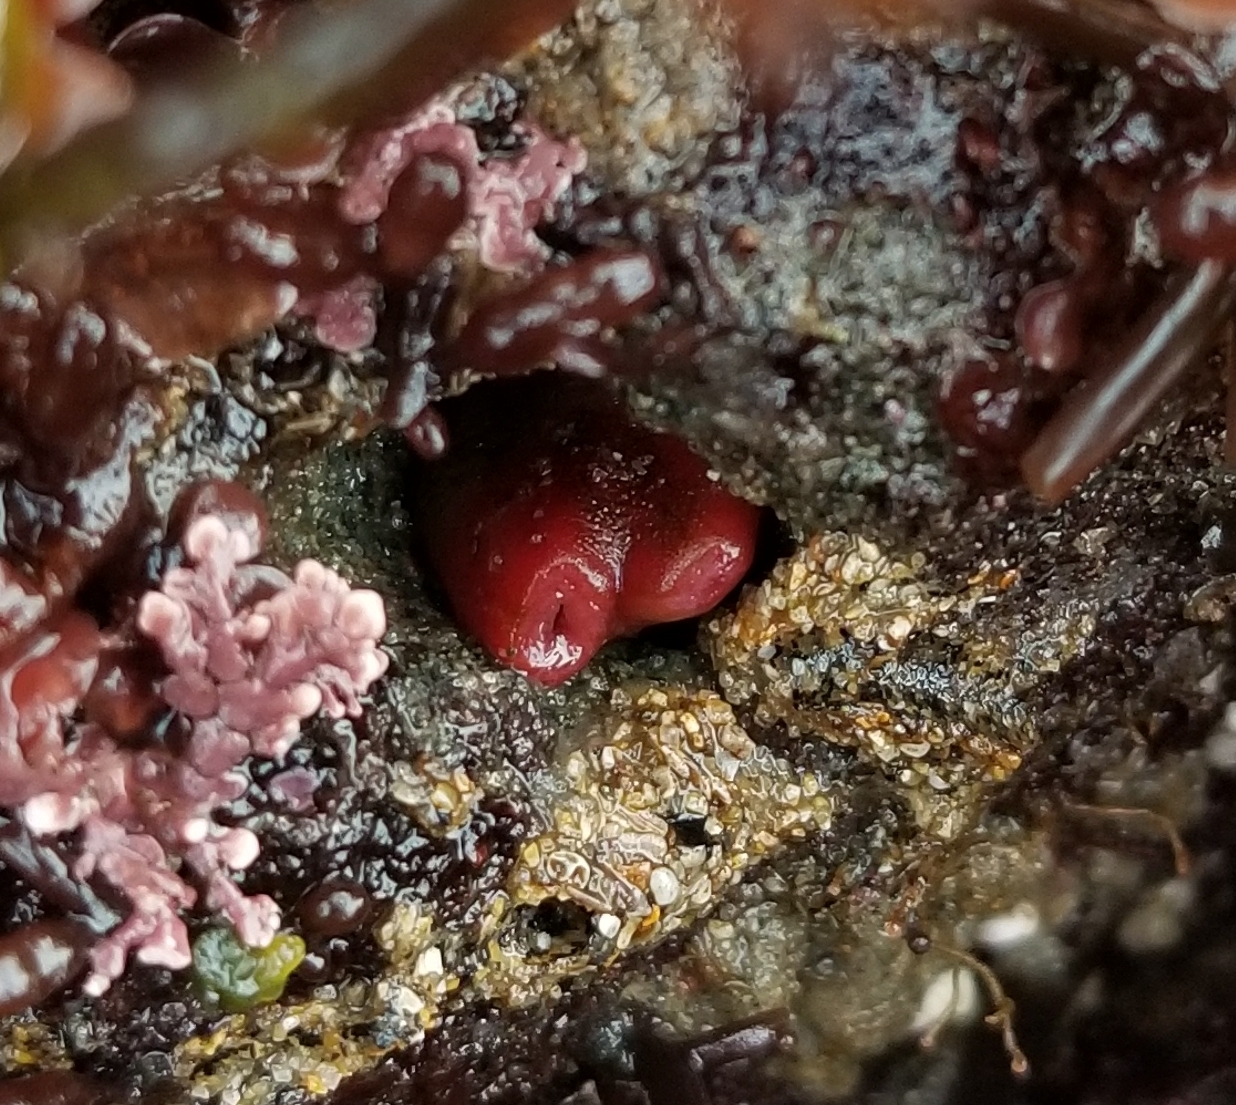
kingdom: Animalia
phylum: Mollusca
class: Bivalvia
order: Adapedonta
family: Hiatellidae
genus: Hiatella
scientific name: Hiatella arctica
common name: Arctic hiatella
